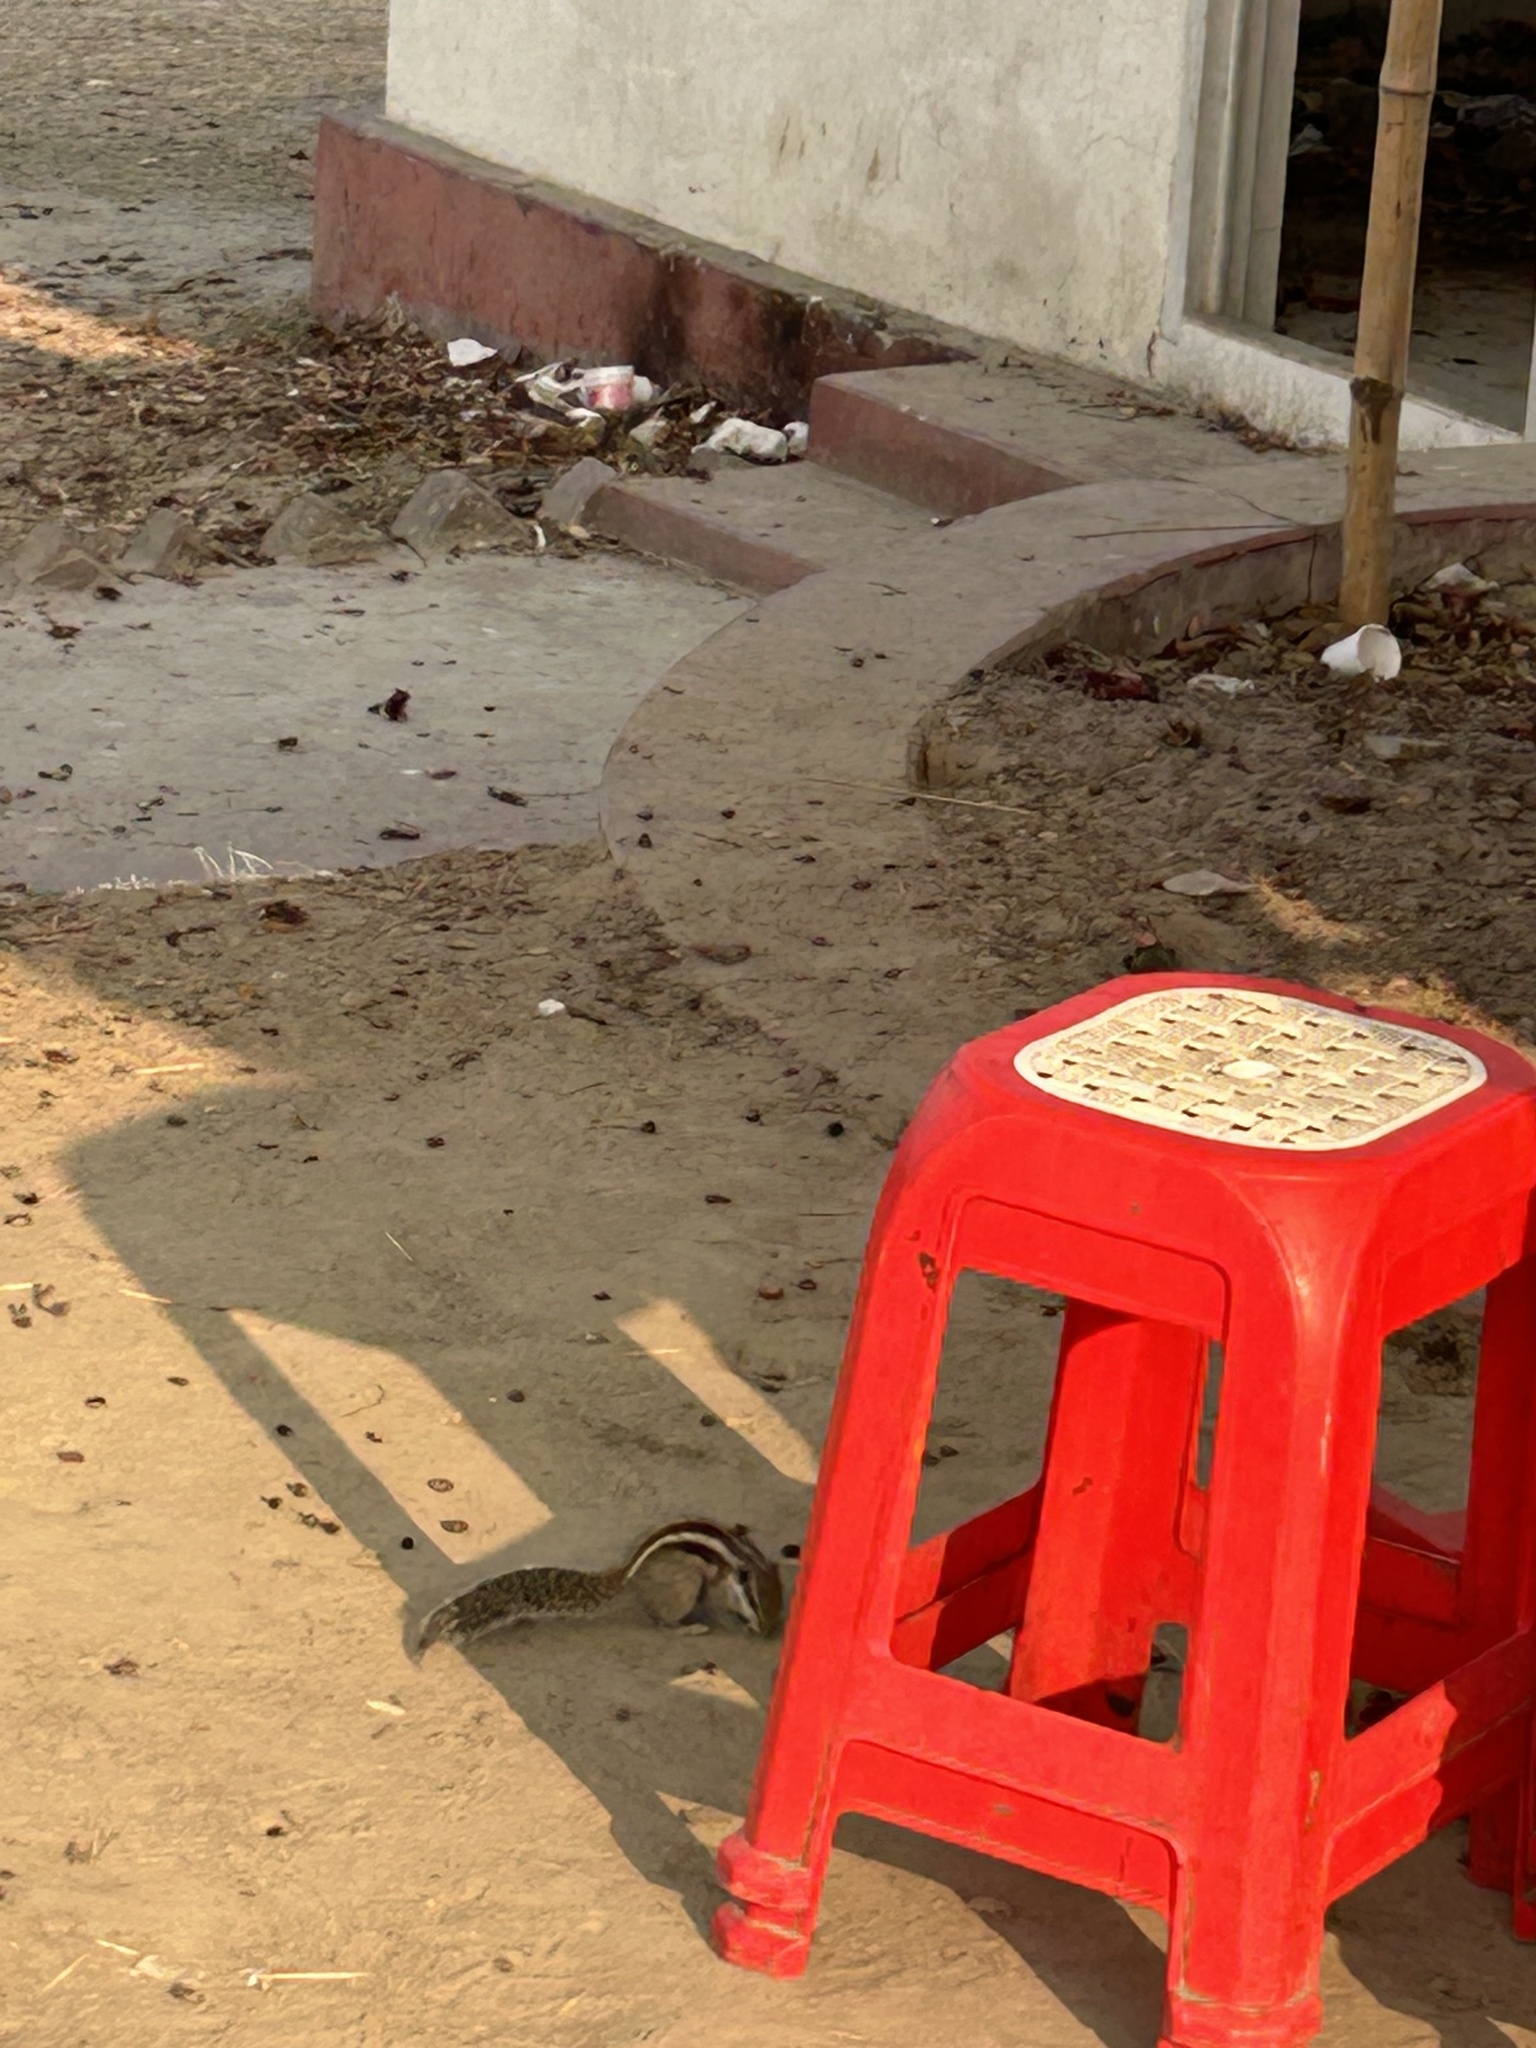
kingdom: Animalia
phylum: Chordata
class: Mammalia
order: Rodentia
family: Sciuridae
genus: Funambulus
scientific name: Funambulus pennantii
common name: Northern palm squirrel
